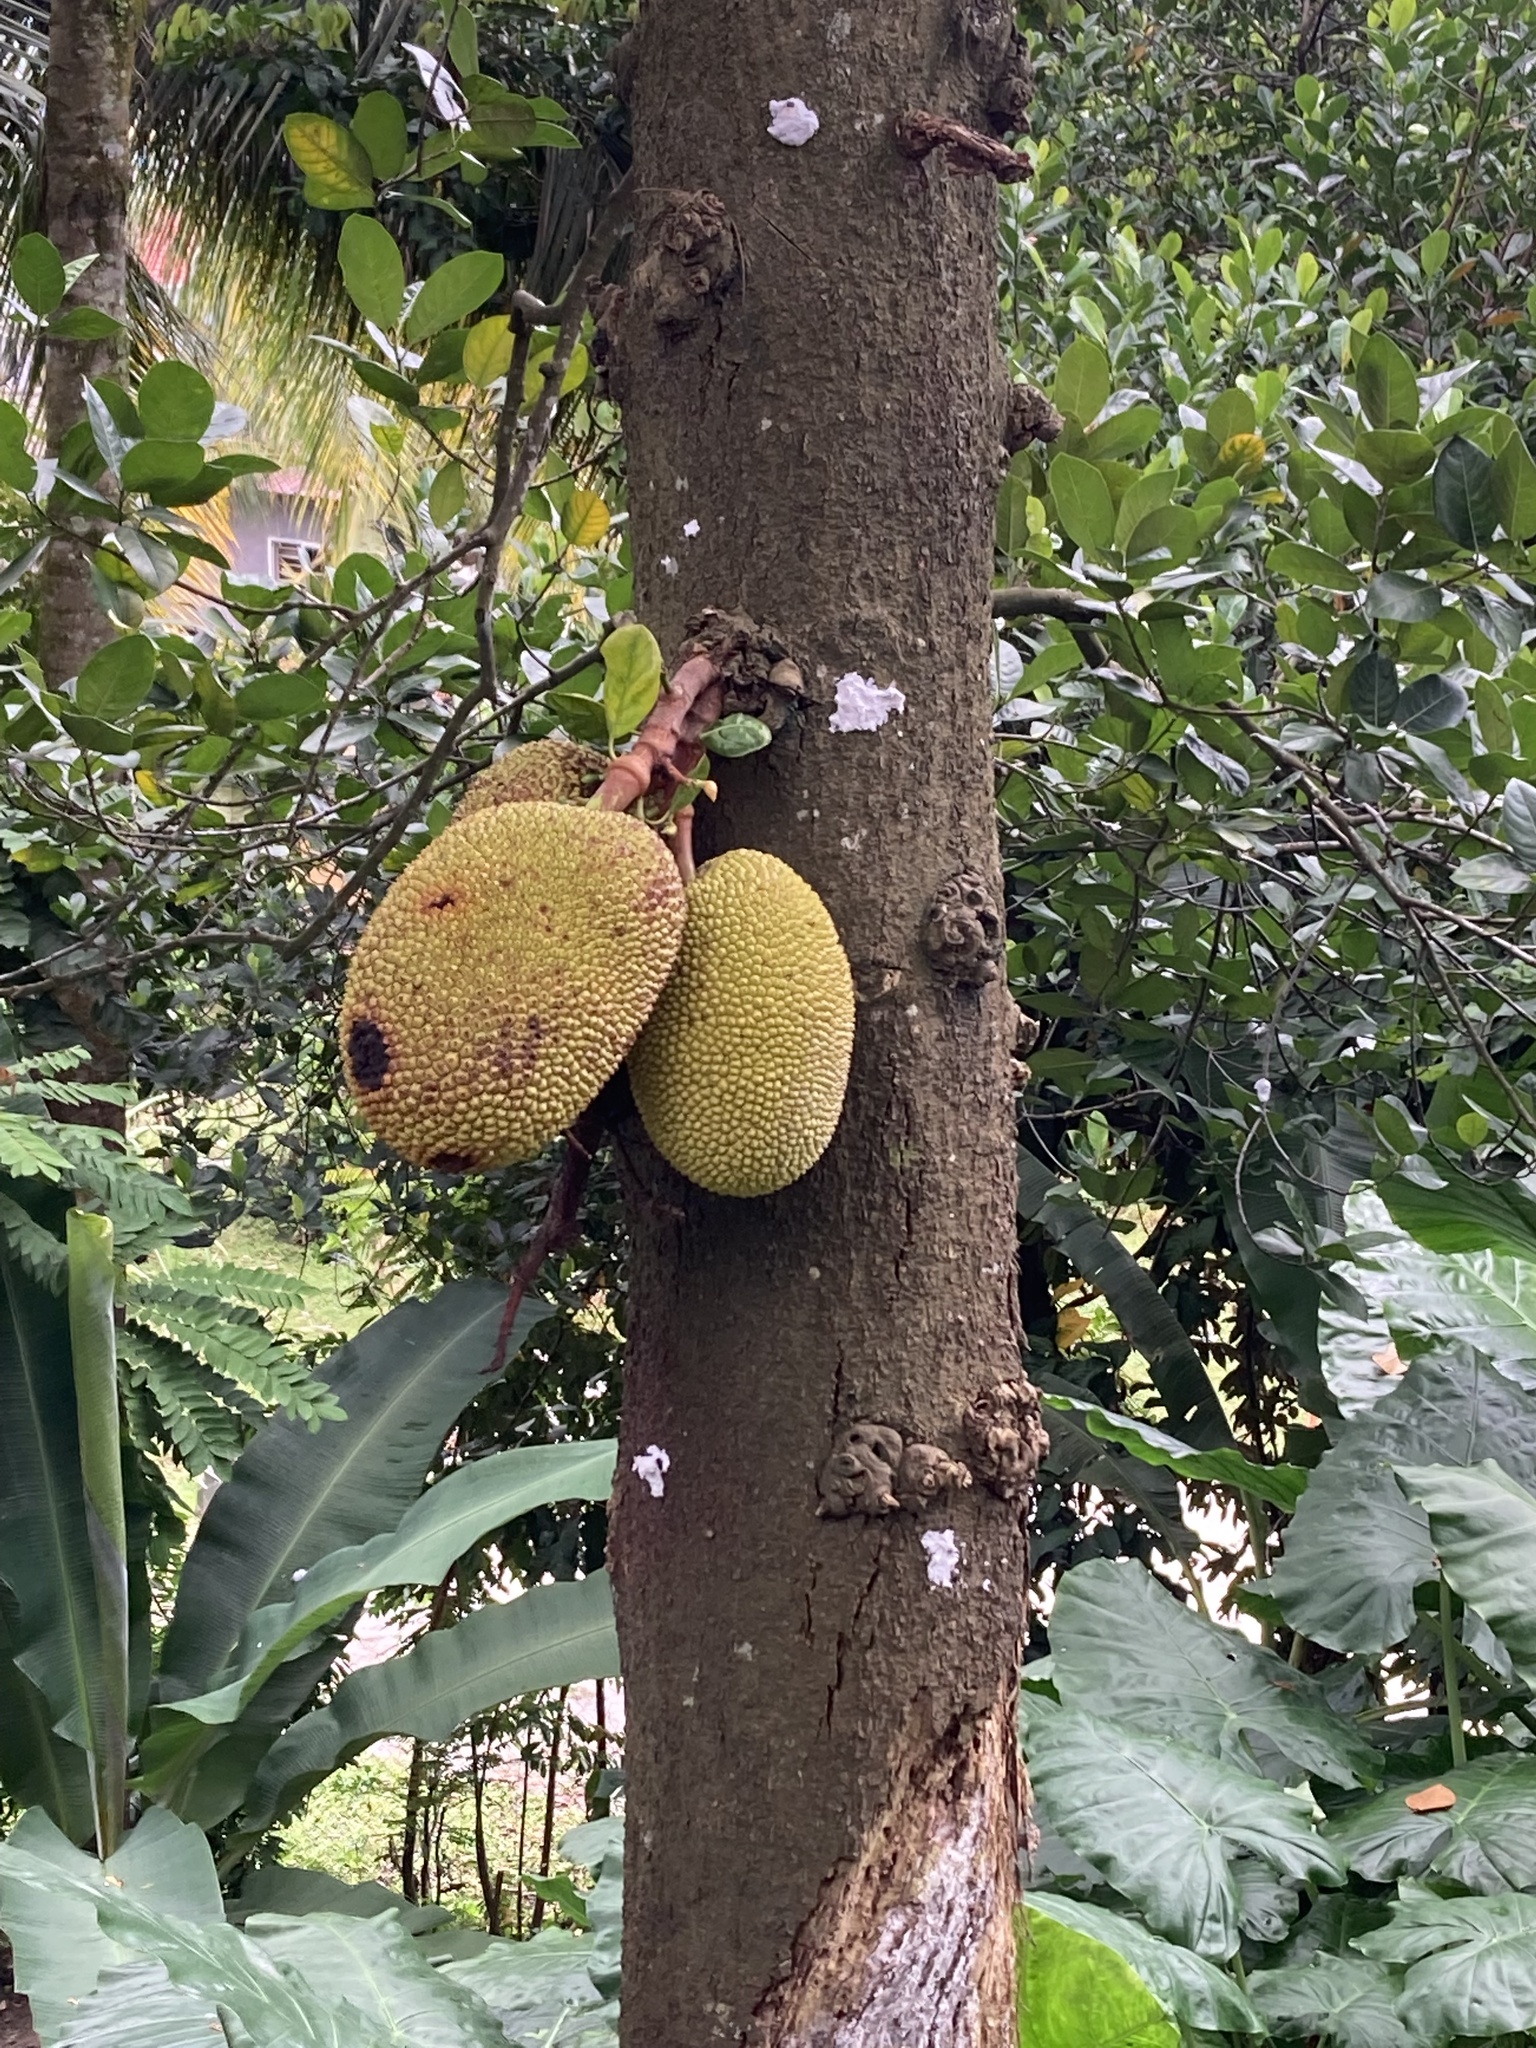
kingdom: Plantae
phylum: Tracheophyta
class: Magnoliopsida
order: Rosales
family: Moraceae
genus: Artocarpus
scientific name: Artocarpus heterophyllus
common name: Jackfruit
